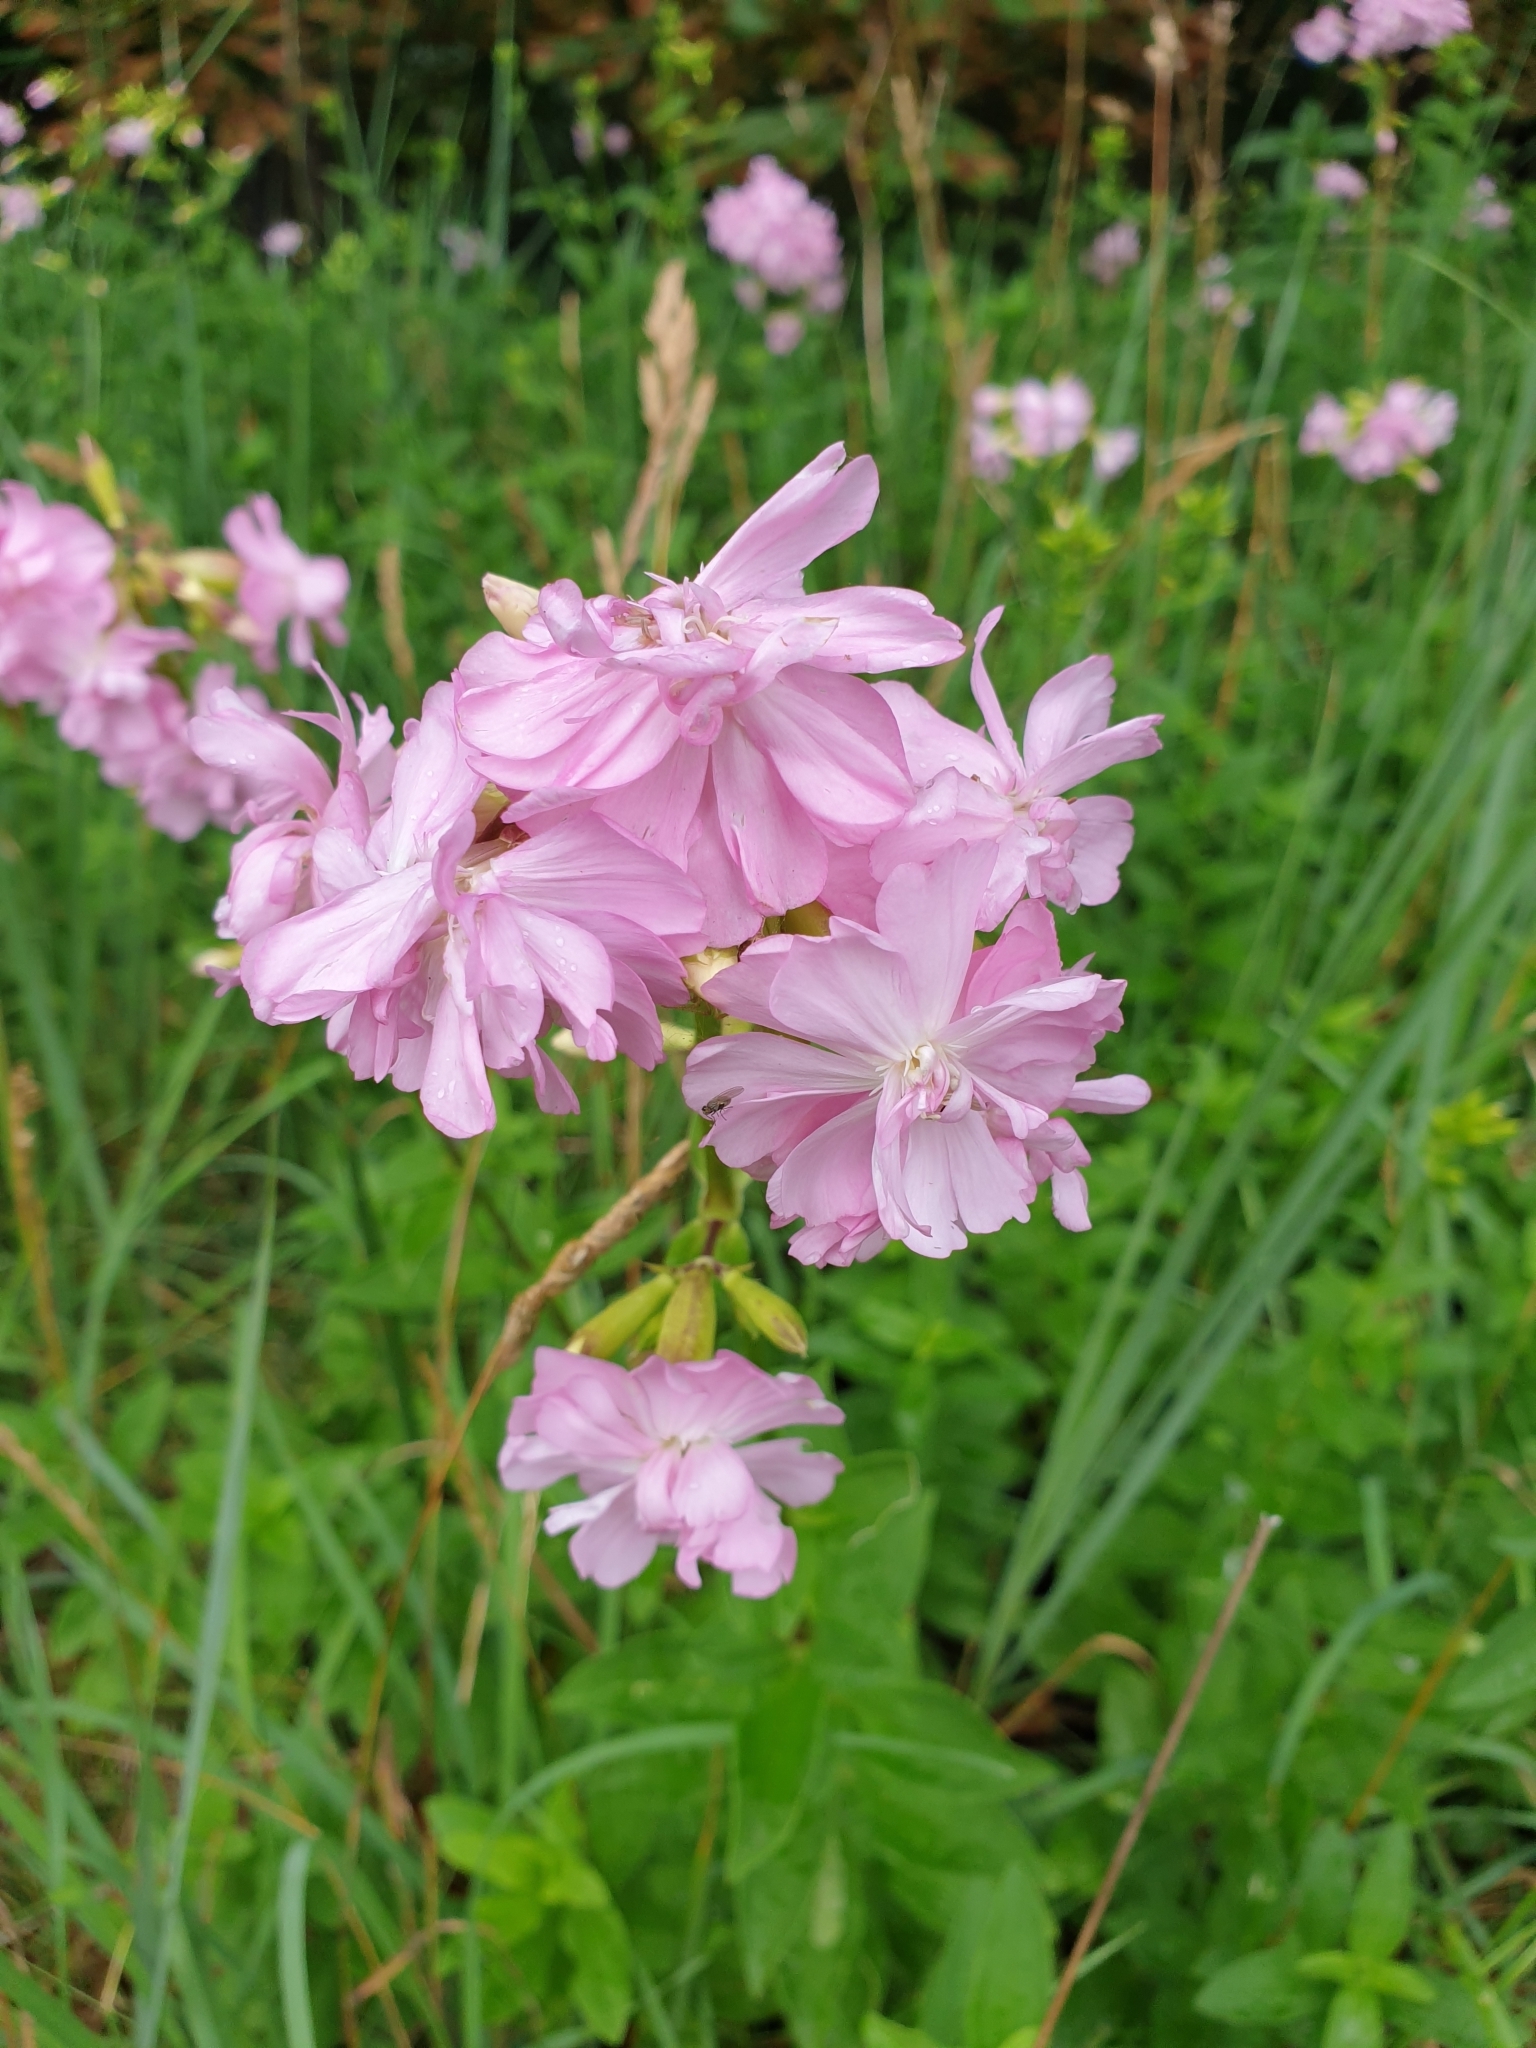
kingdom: Plantae
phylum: Tracheophyta
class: Magnoliopsida
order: Caryophyllales
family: Caryophyllaceae
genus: Saponaria
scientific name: Saponaria officinalis
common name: Soapwort
